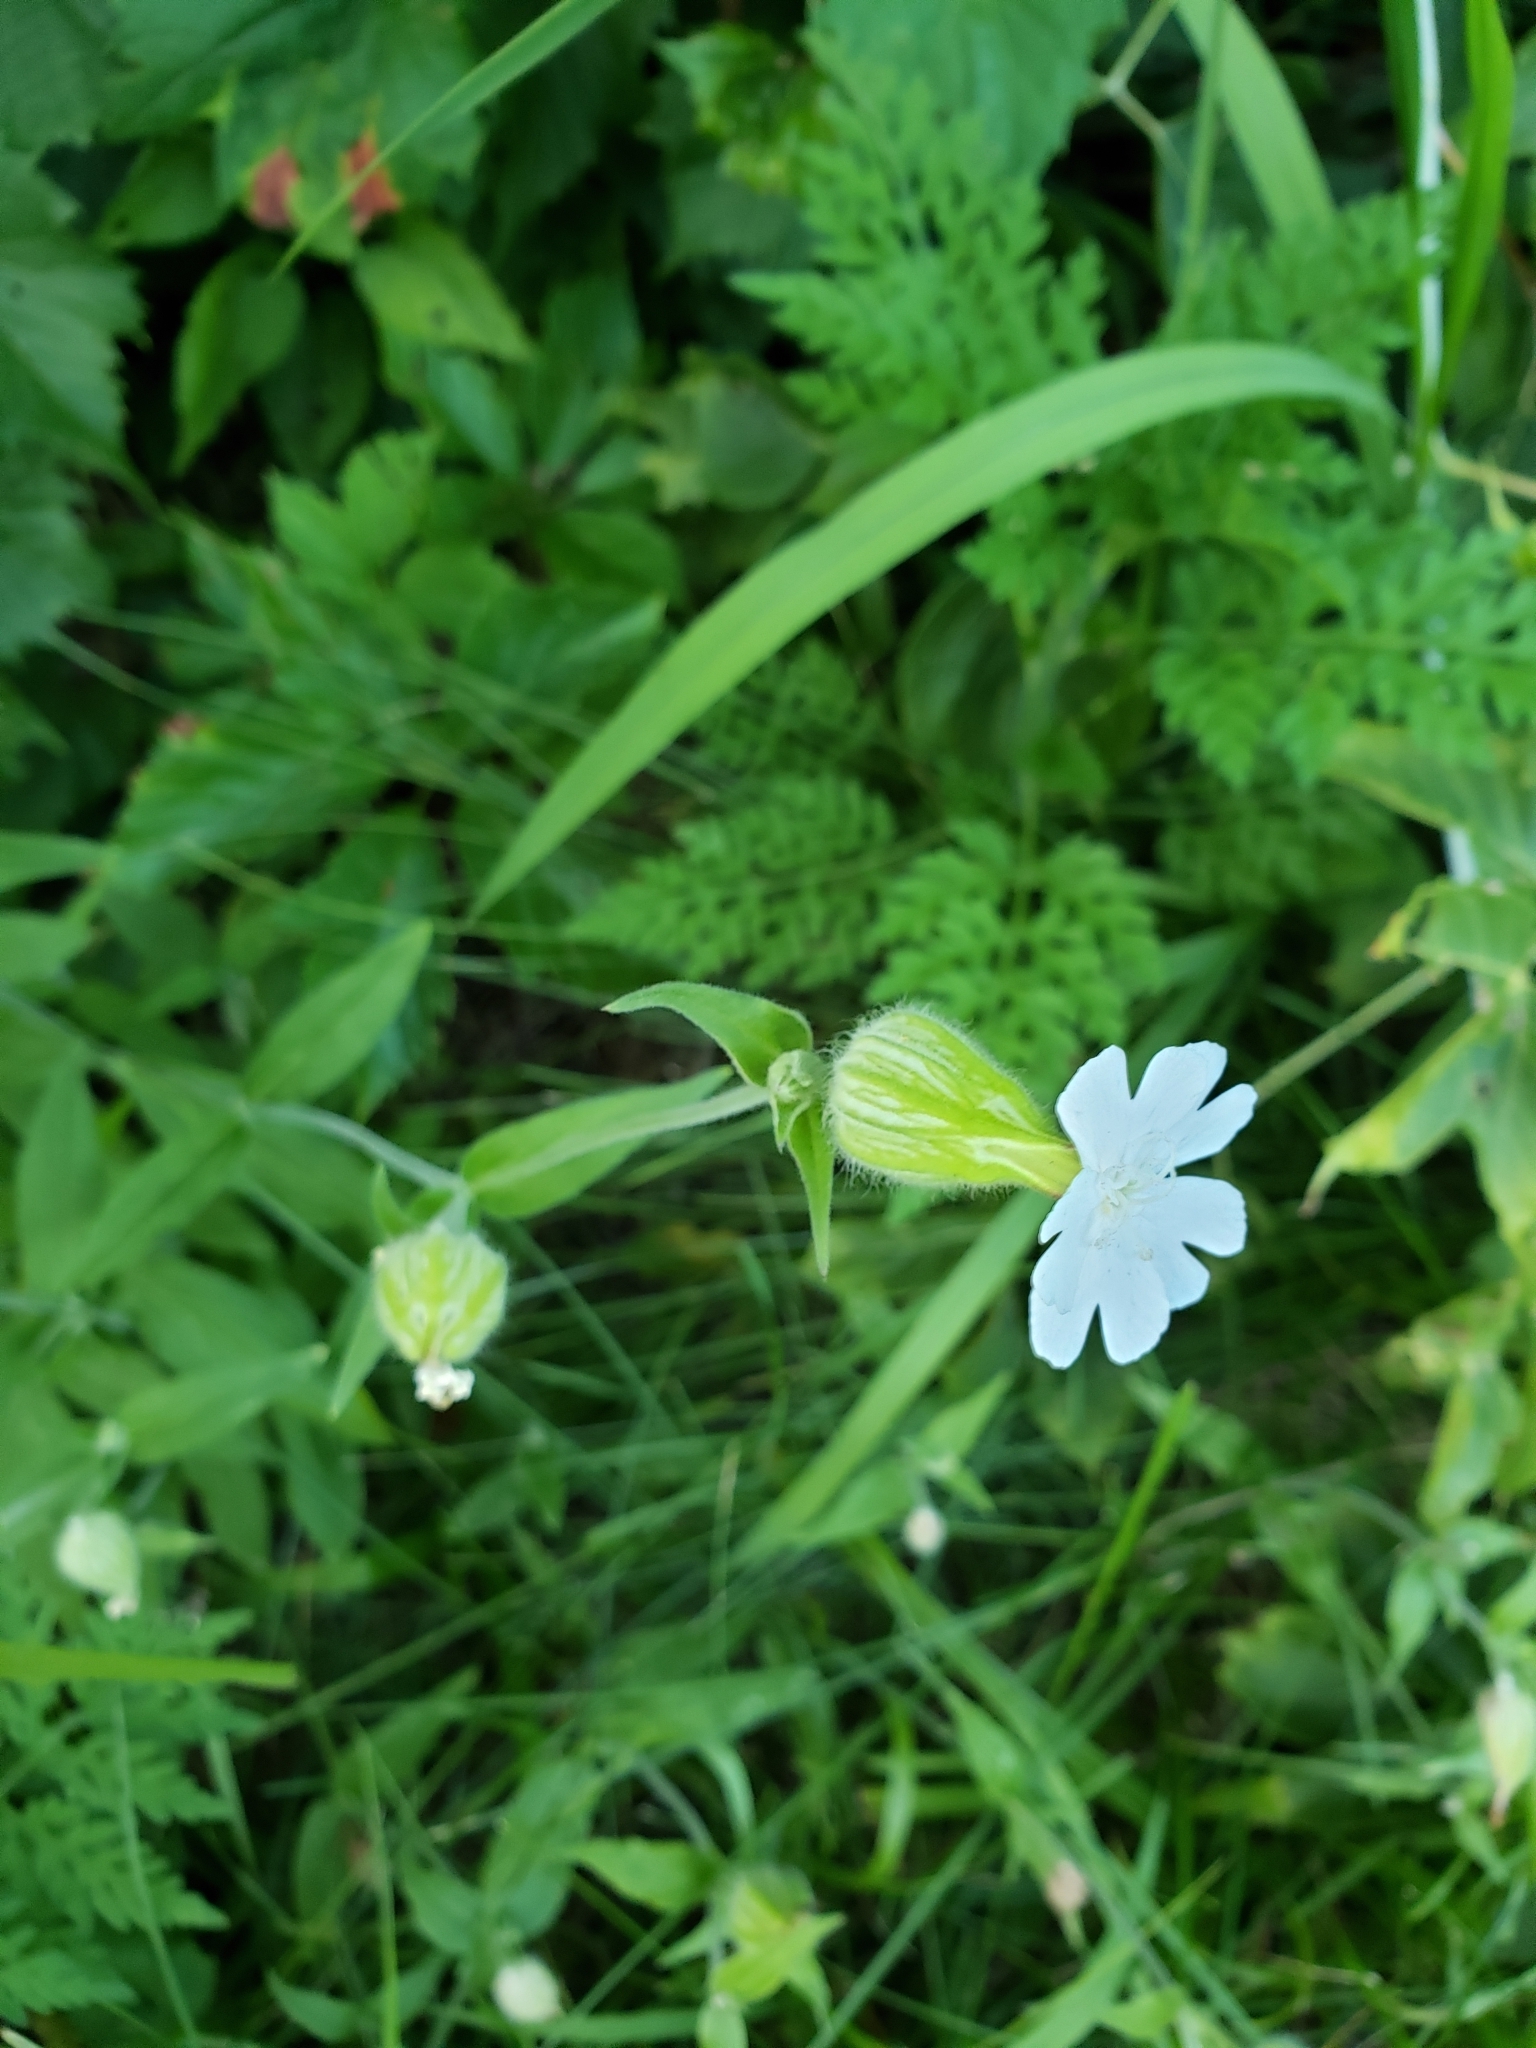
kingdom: Plantae
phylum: Tracheophyta
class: Magnoliopsida
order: Caryophyllales
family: Caryophyllaceae
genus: Silene
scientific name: Silene latifolia
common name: White campion
